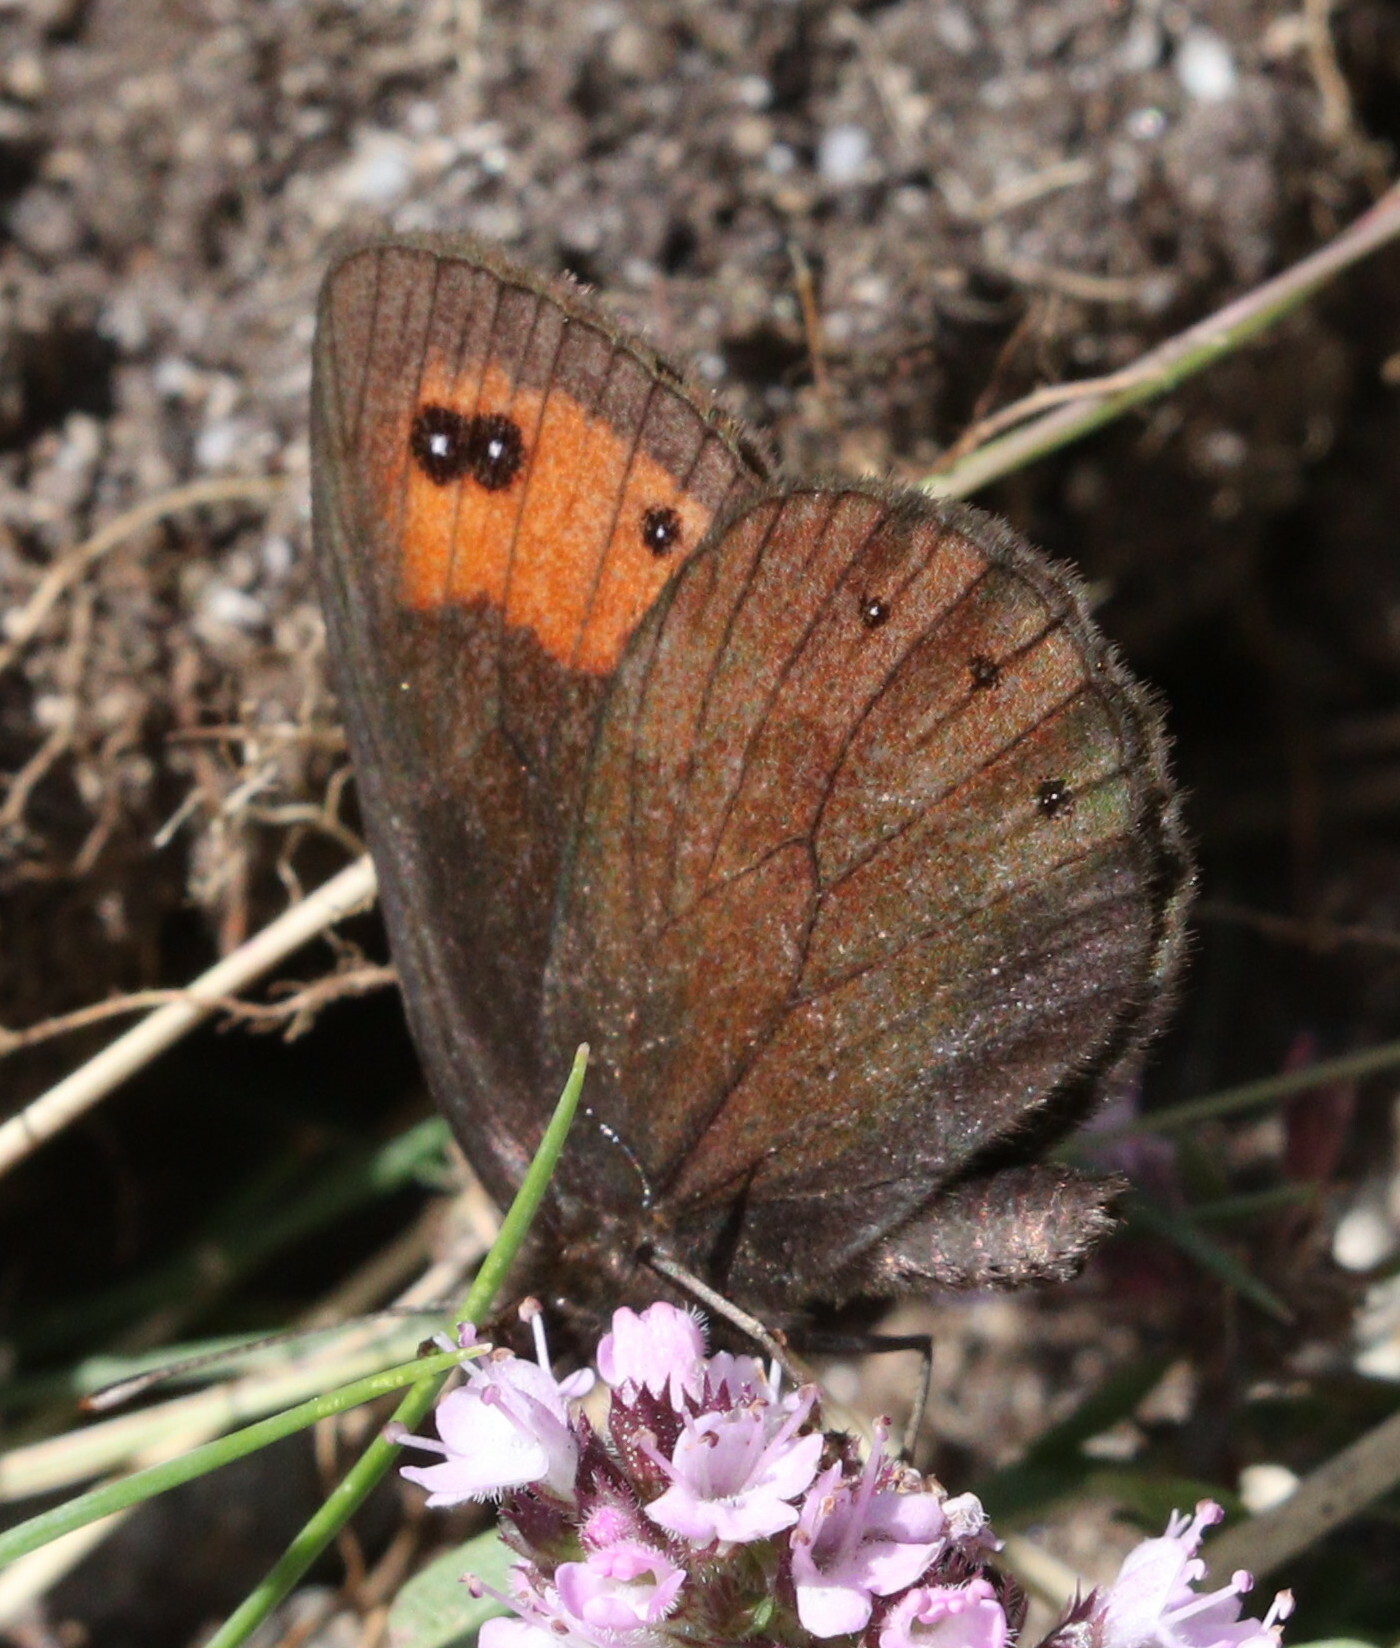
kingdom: Animalia
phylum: Arthropoda
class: Insecta
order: Lepidoptera
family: Nymphalidae
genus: Erebia
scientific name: Erebia meolans
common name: Piedmont ringlet
